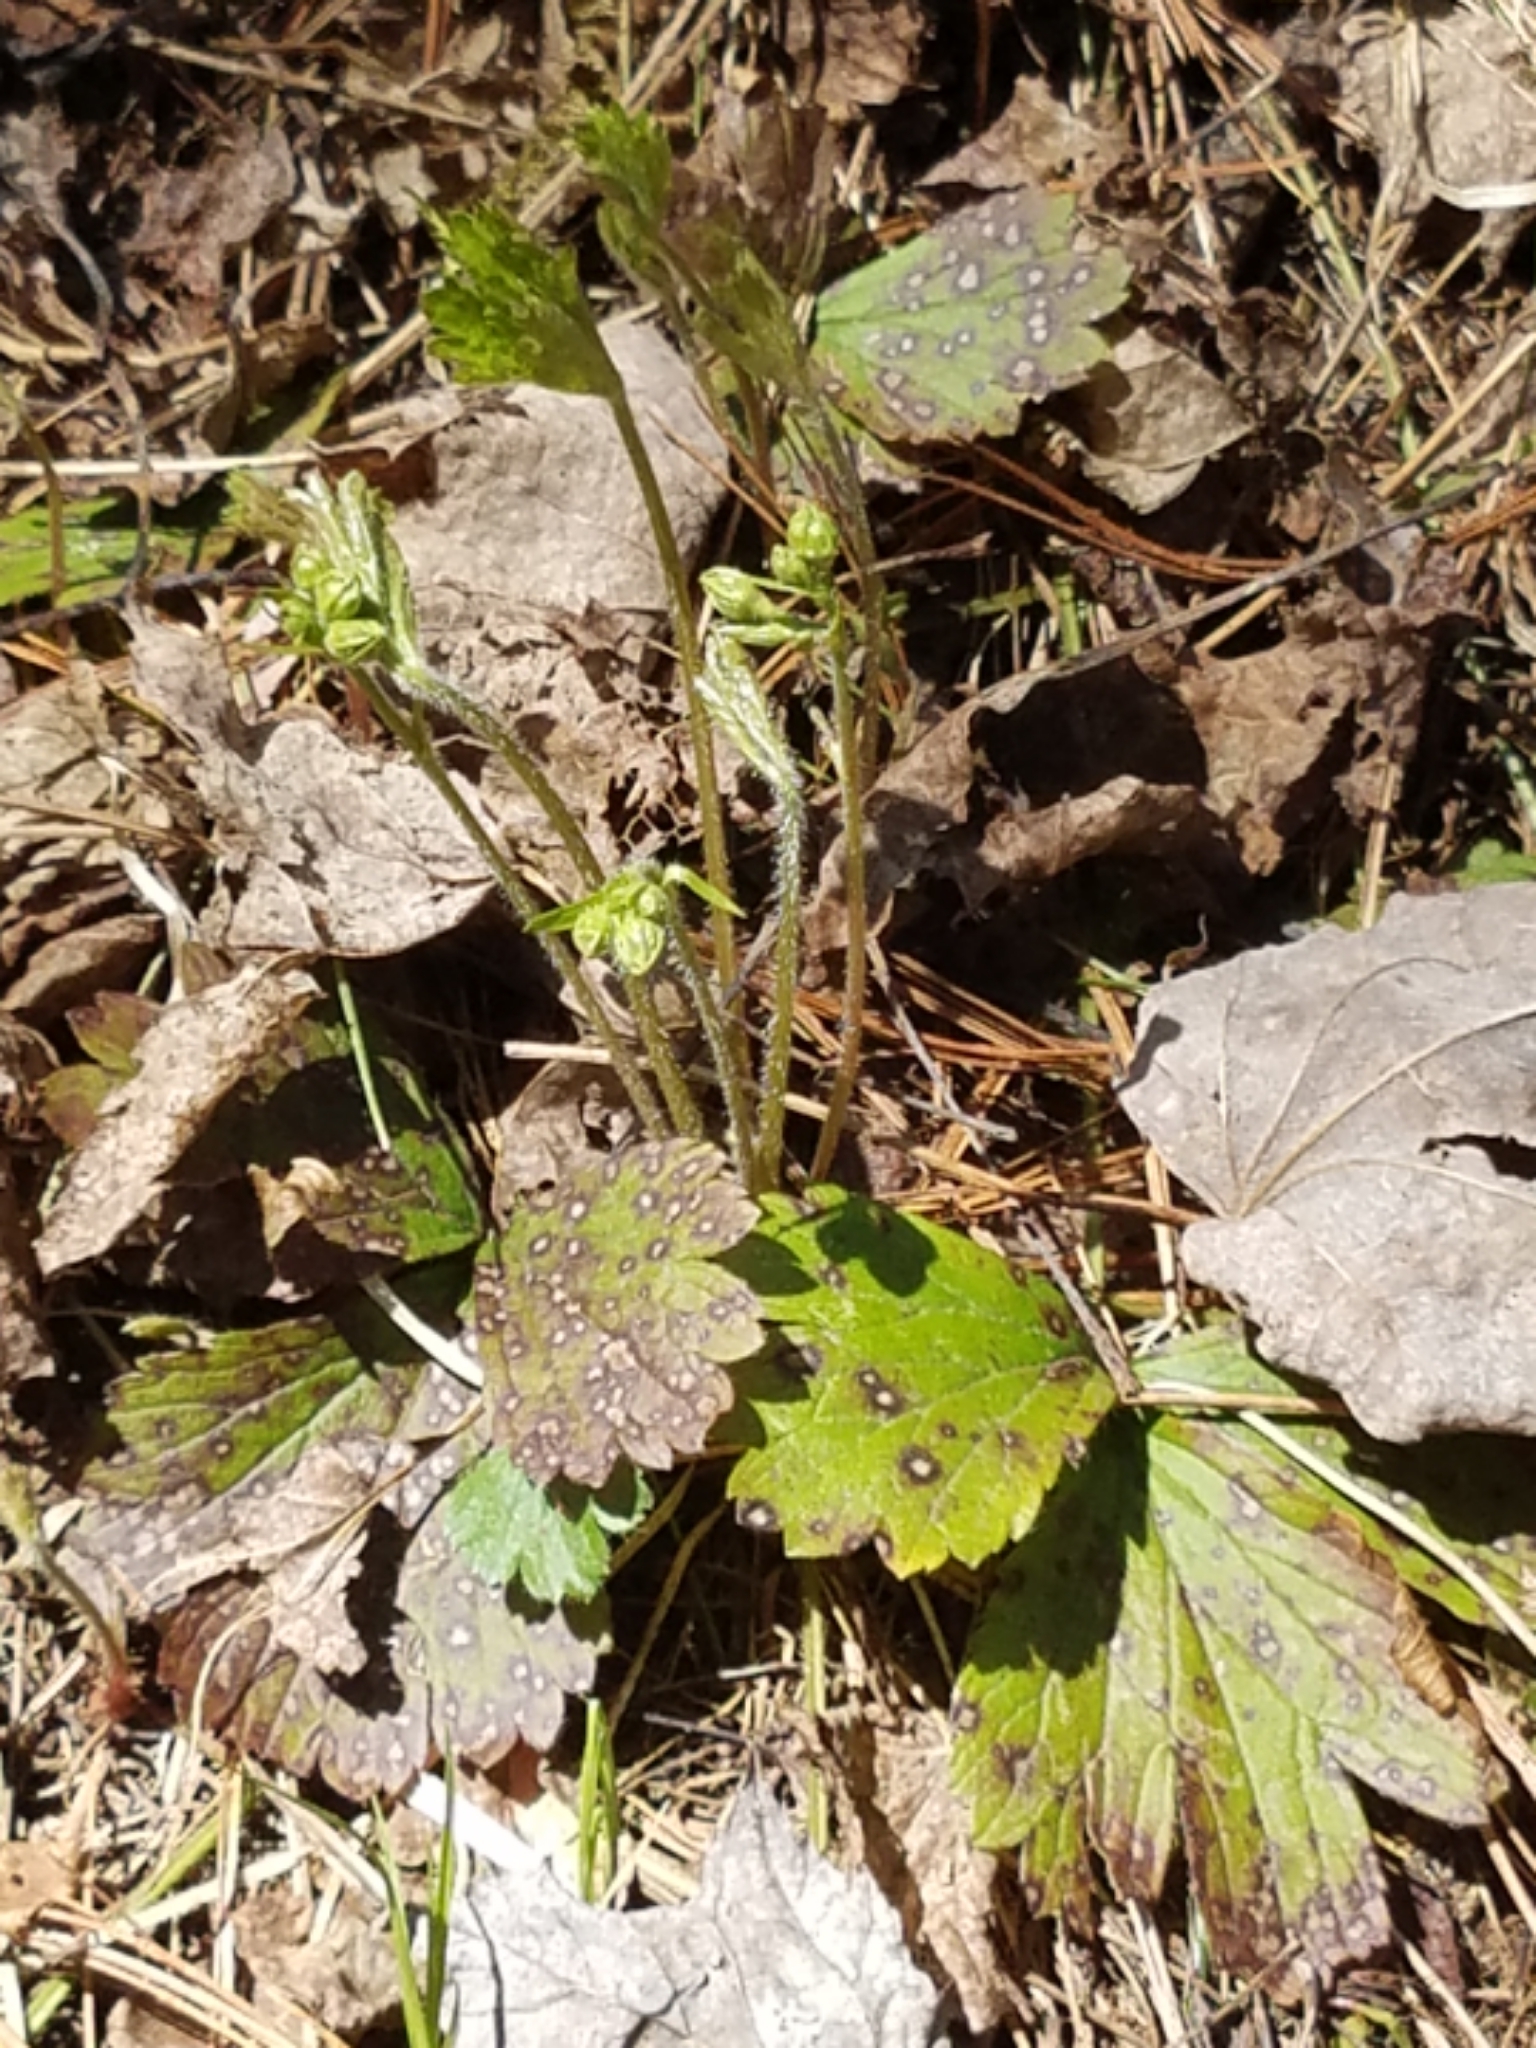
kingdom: Plantae
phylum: Tracheophyta
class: Magnoliopsida
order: Rosales
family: Rosaceae
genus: Geum
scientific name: Geum fragarioides
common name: Appalachian barren strawberry
